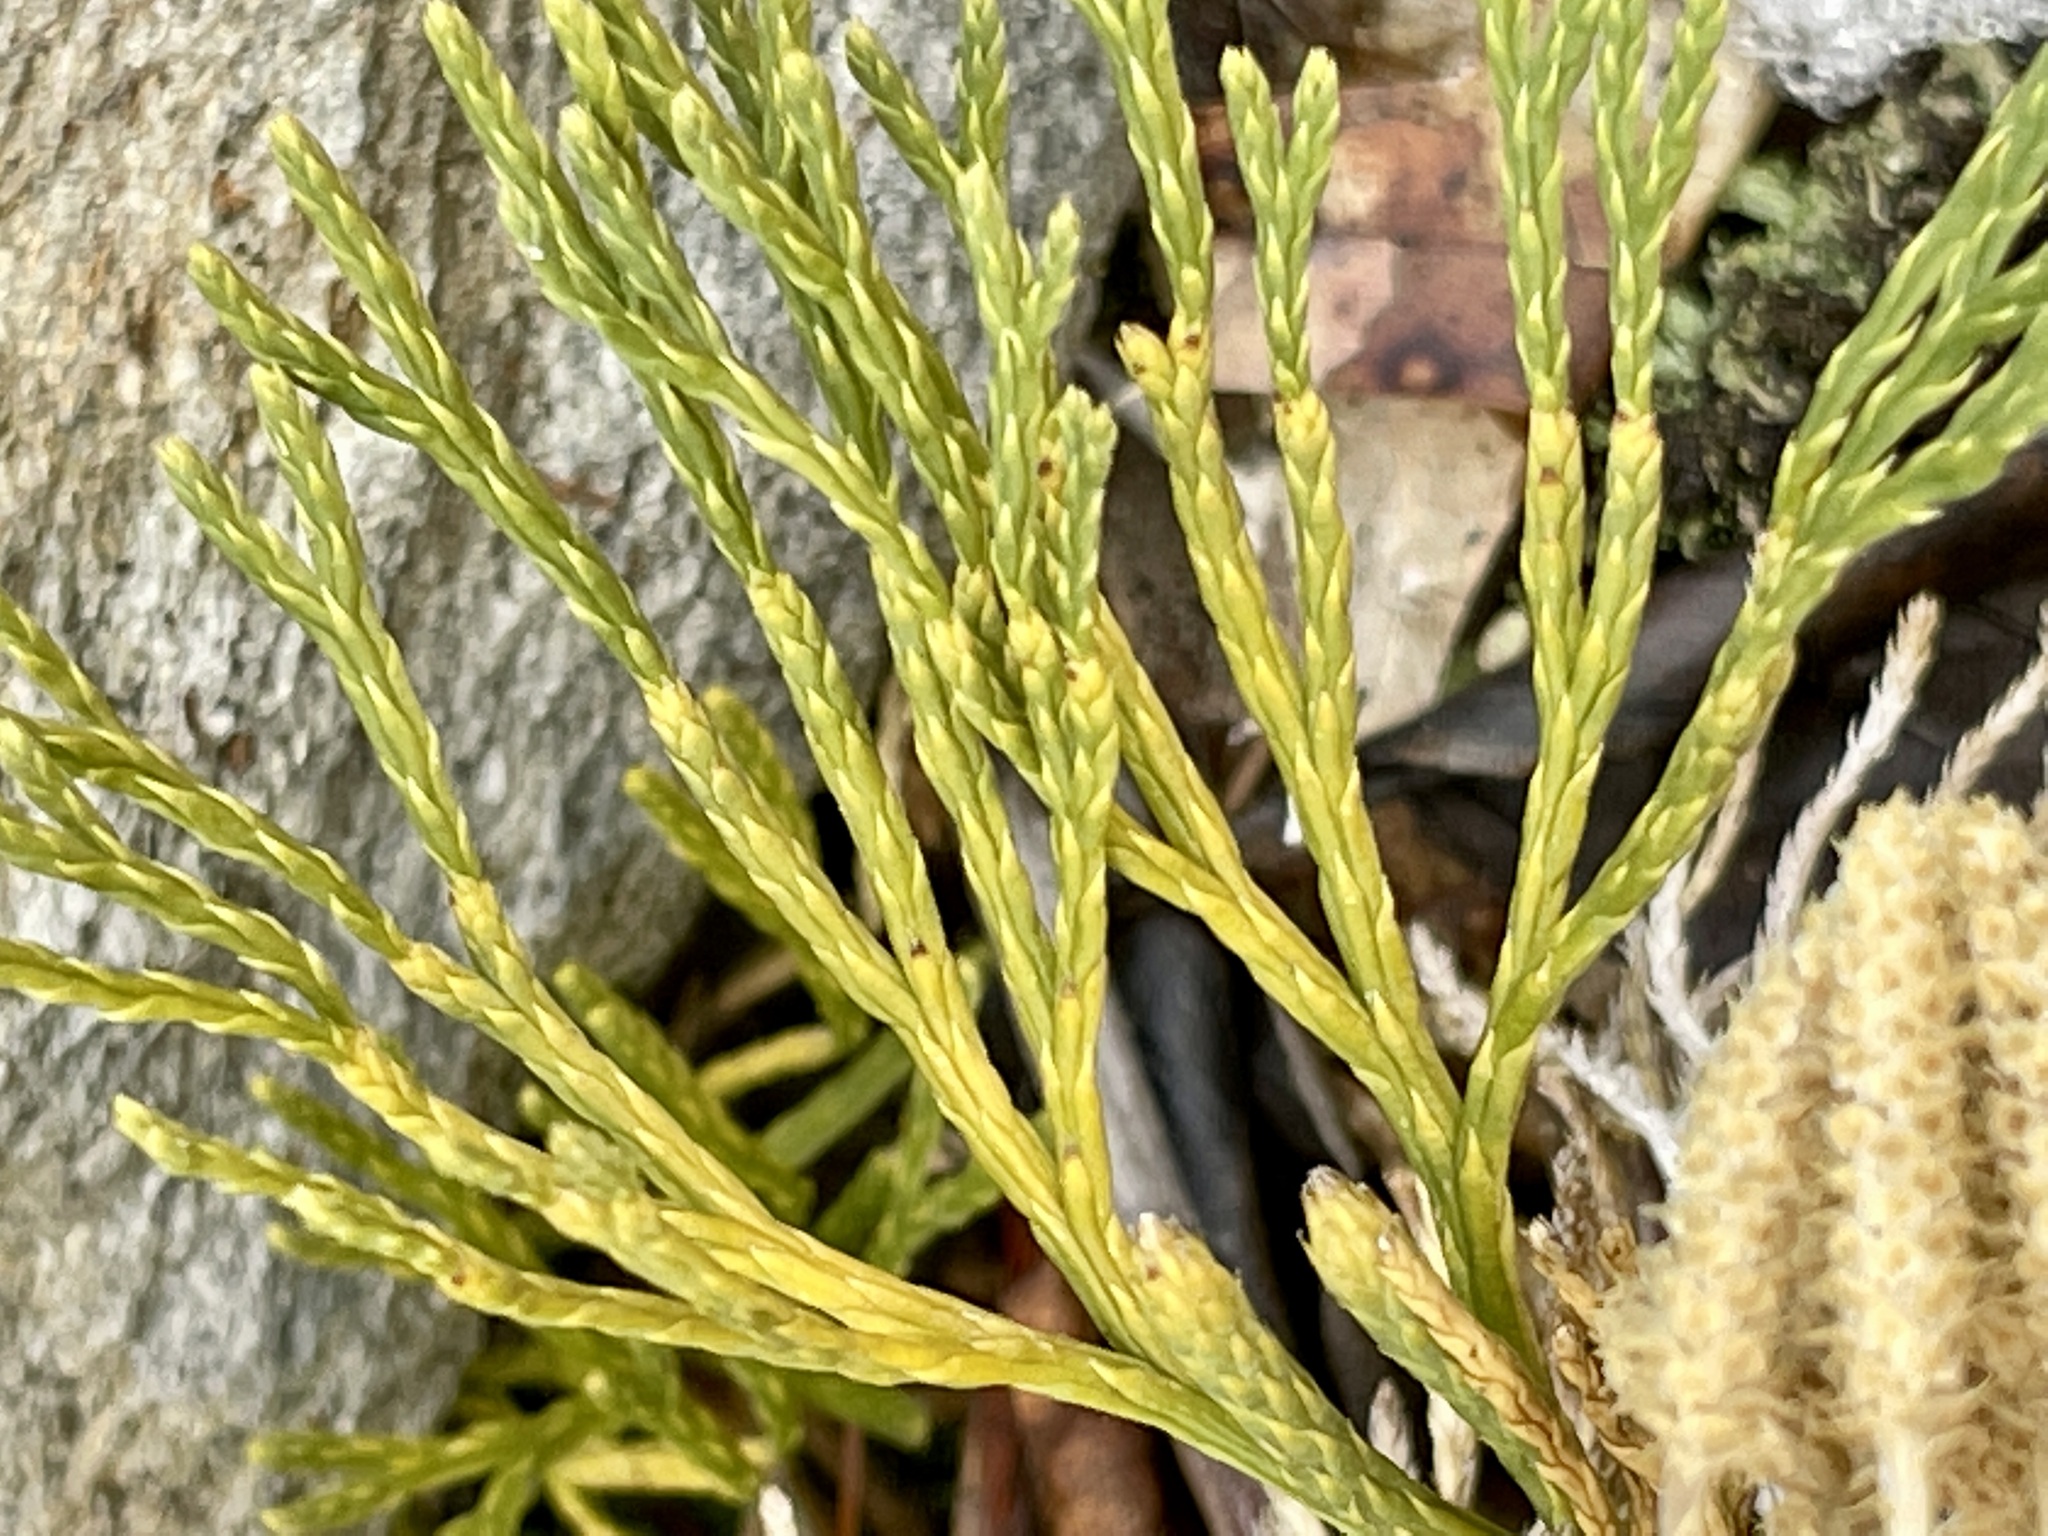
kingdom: Plantae
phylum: Tracheophyta
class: Lycopodiopsida
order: Lycopodiales
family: Lycopodiaceae
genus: Diphasiastrum
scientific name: Diphasiastrum tristachyum
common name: Blue ground-cedar
